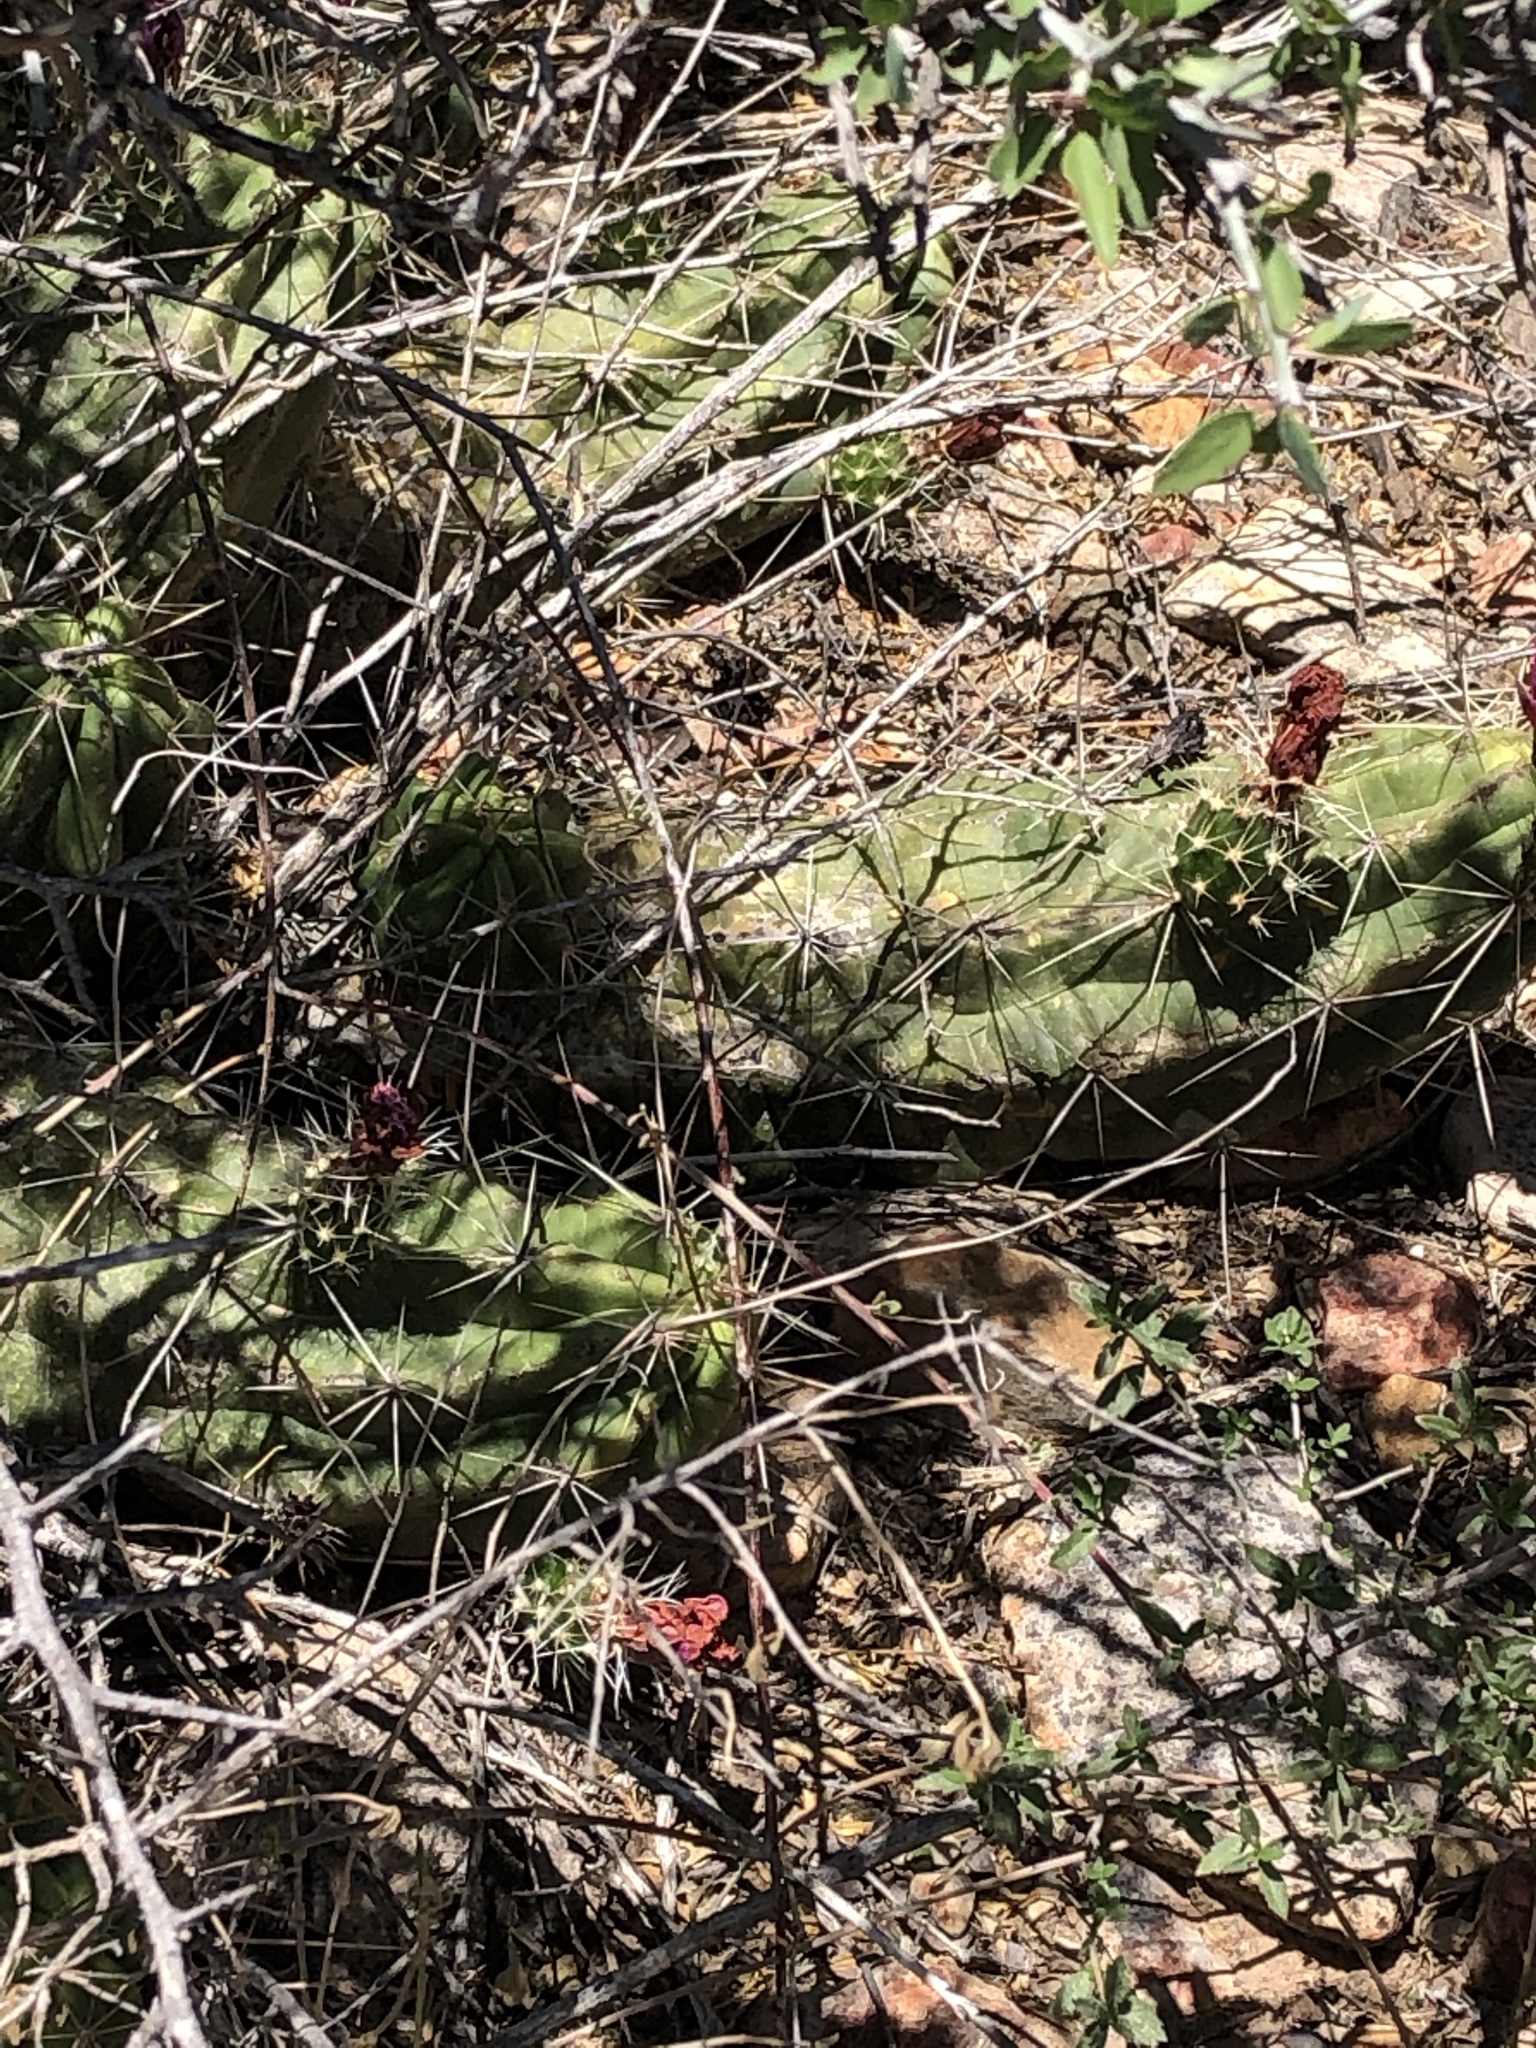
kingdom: Plantae
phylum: Tracheophyta
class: Magnoliopsida
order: Caryophyllales
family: Cactaceae
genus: Echinocereus
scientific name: Echinocereus enneacanthus
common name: Pitaya
